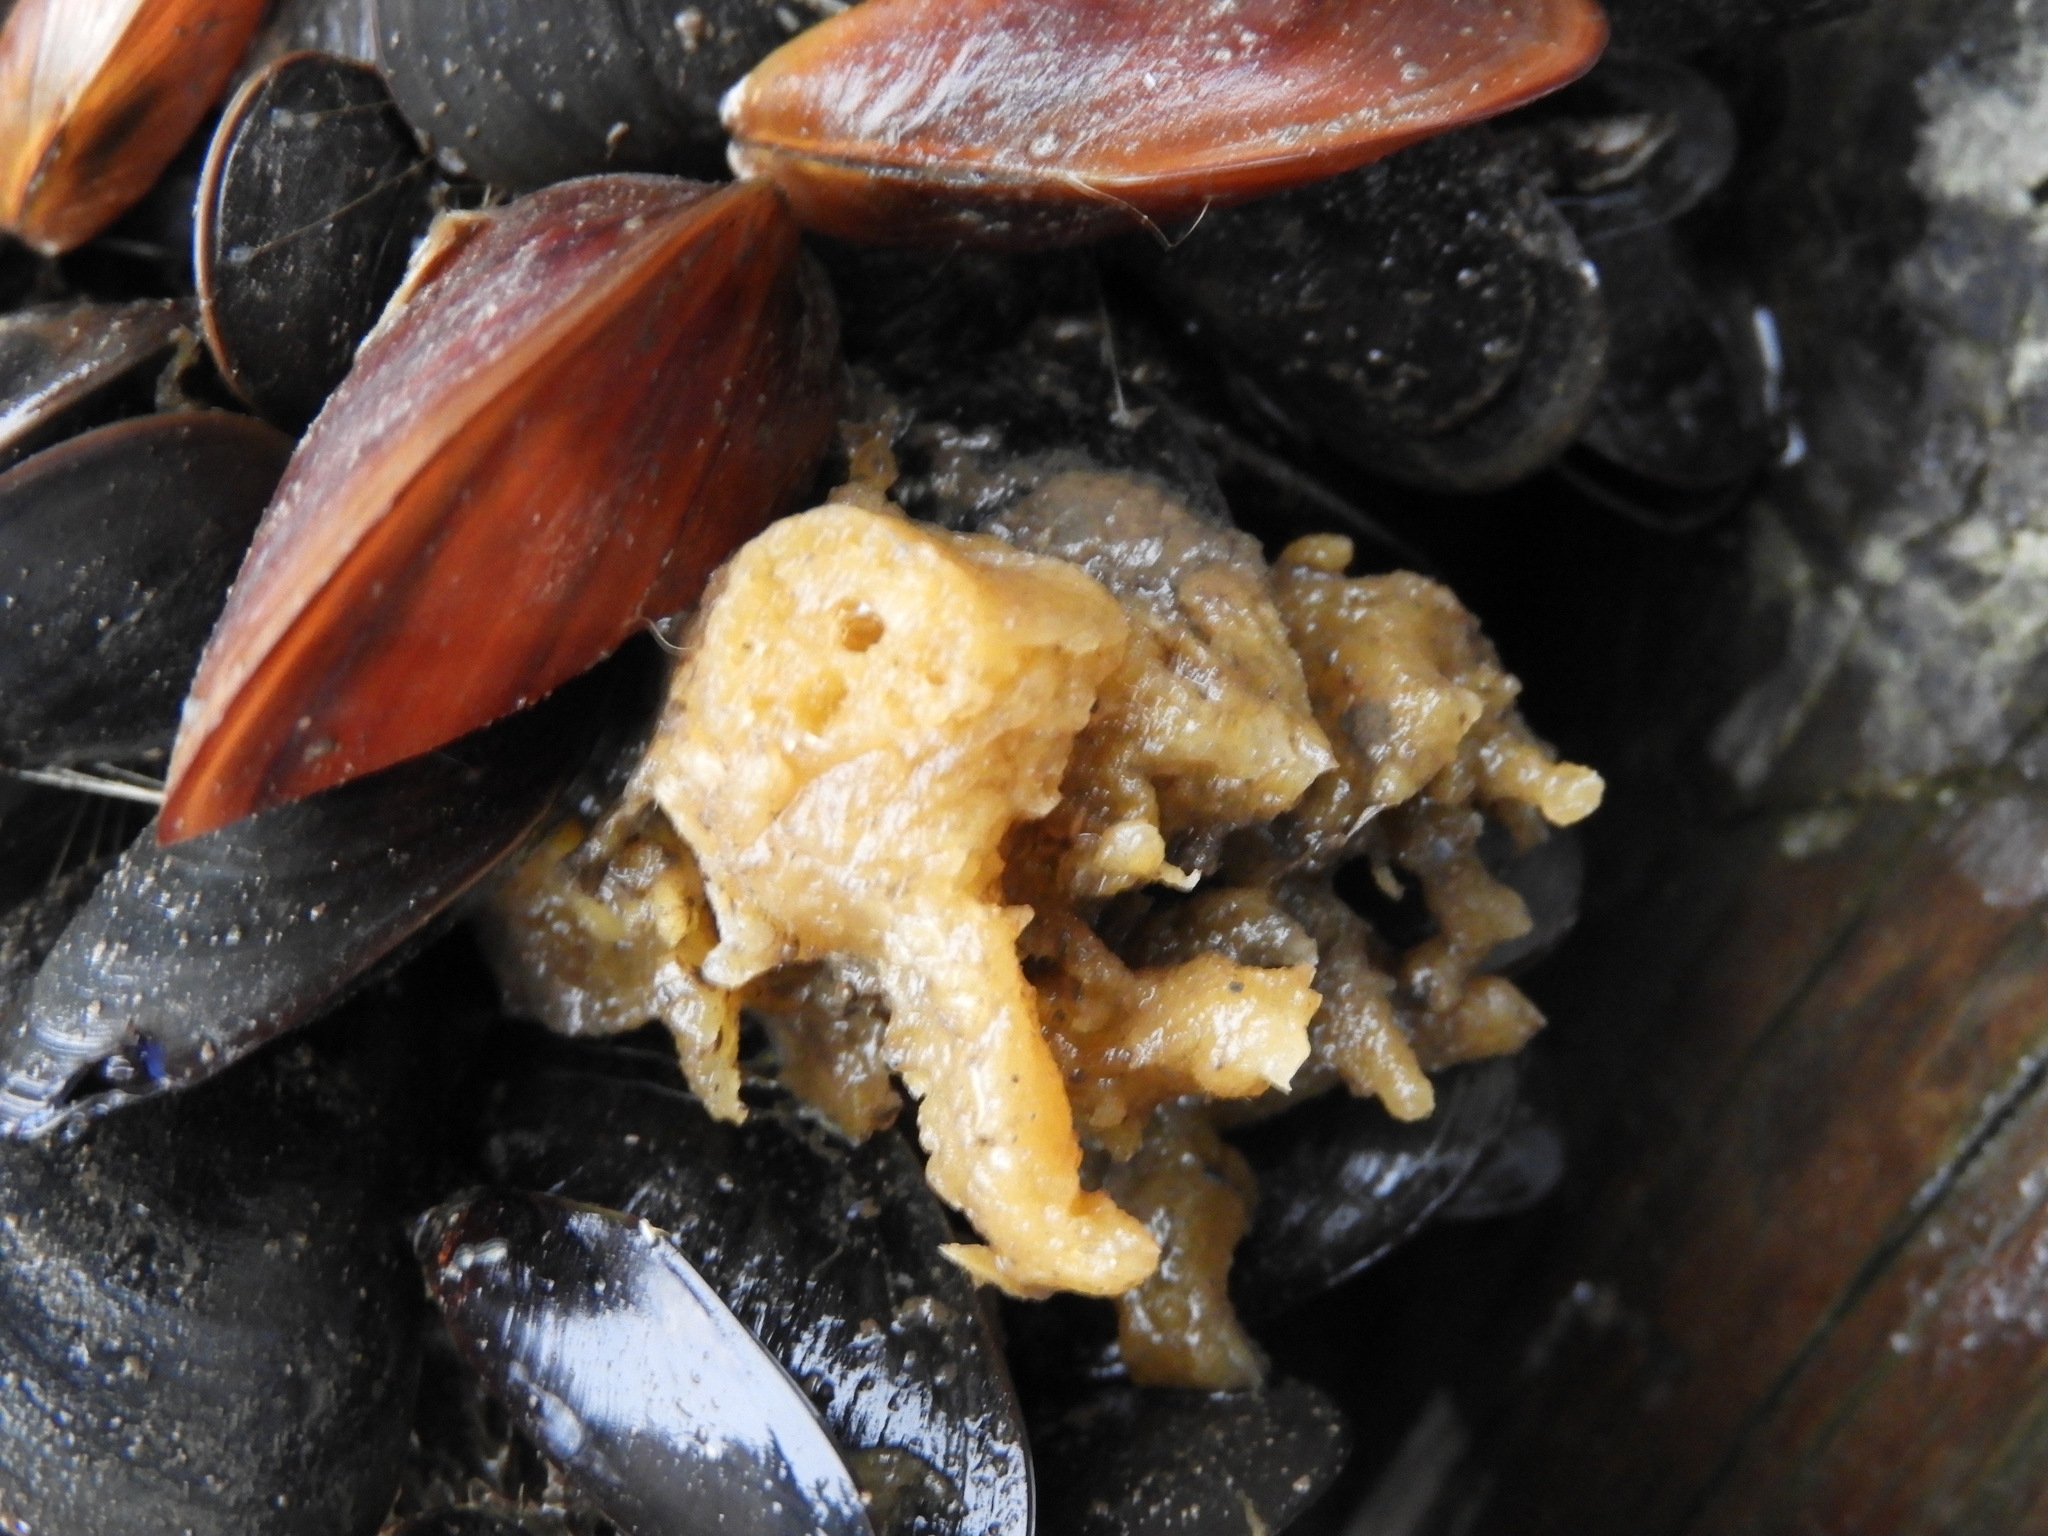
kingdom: Animalia
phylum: Porifera
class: Demospongiae
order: Suberitida
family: Halichondriidae
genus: Halichondria
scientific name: Halichondria panicea
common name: Breadcrumb sponge
